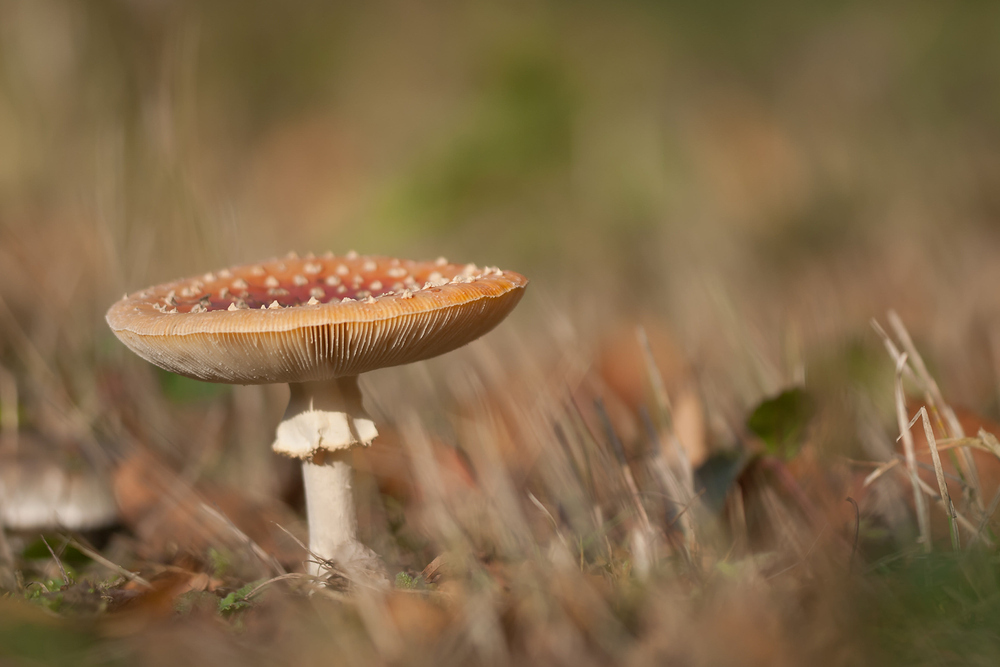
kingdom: Fungi
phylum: Basidiomycota
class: Agaricomycetes
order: Agaricales
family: Amanitaceae
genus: Amanita
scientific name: Amanita muscaria
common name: Fly agaric
